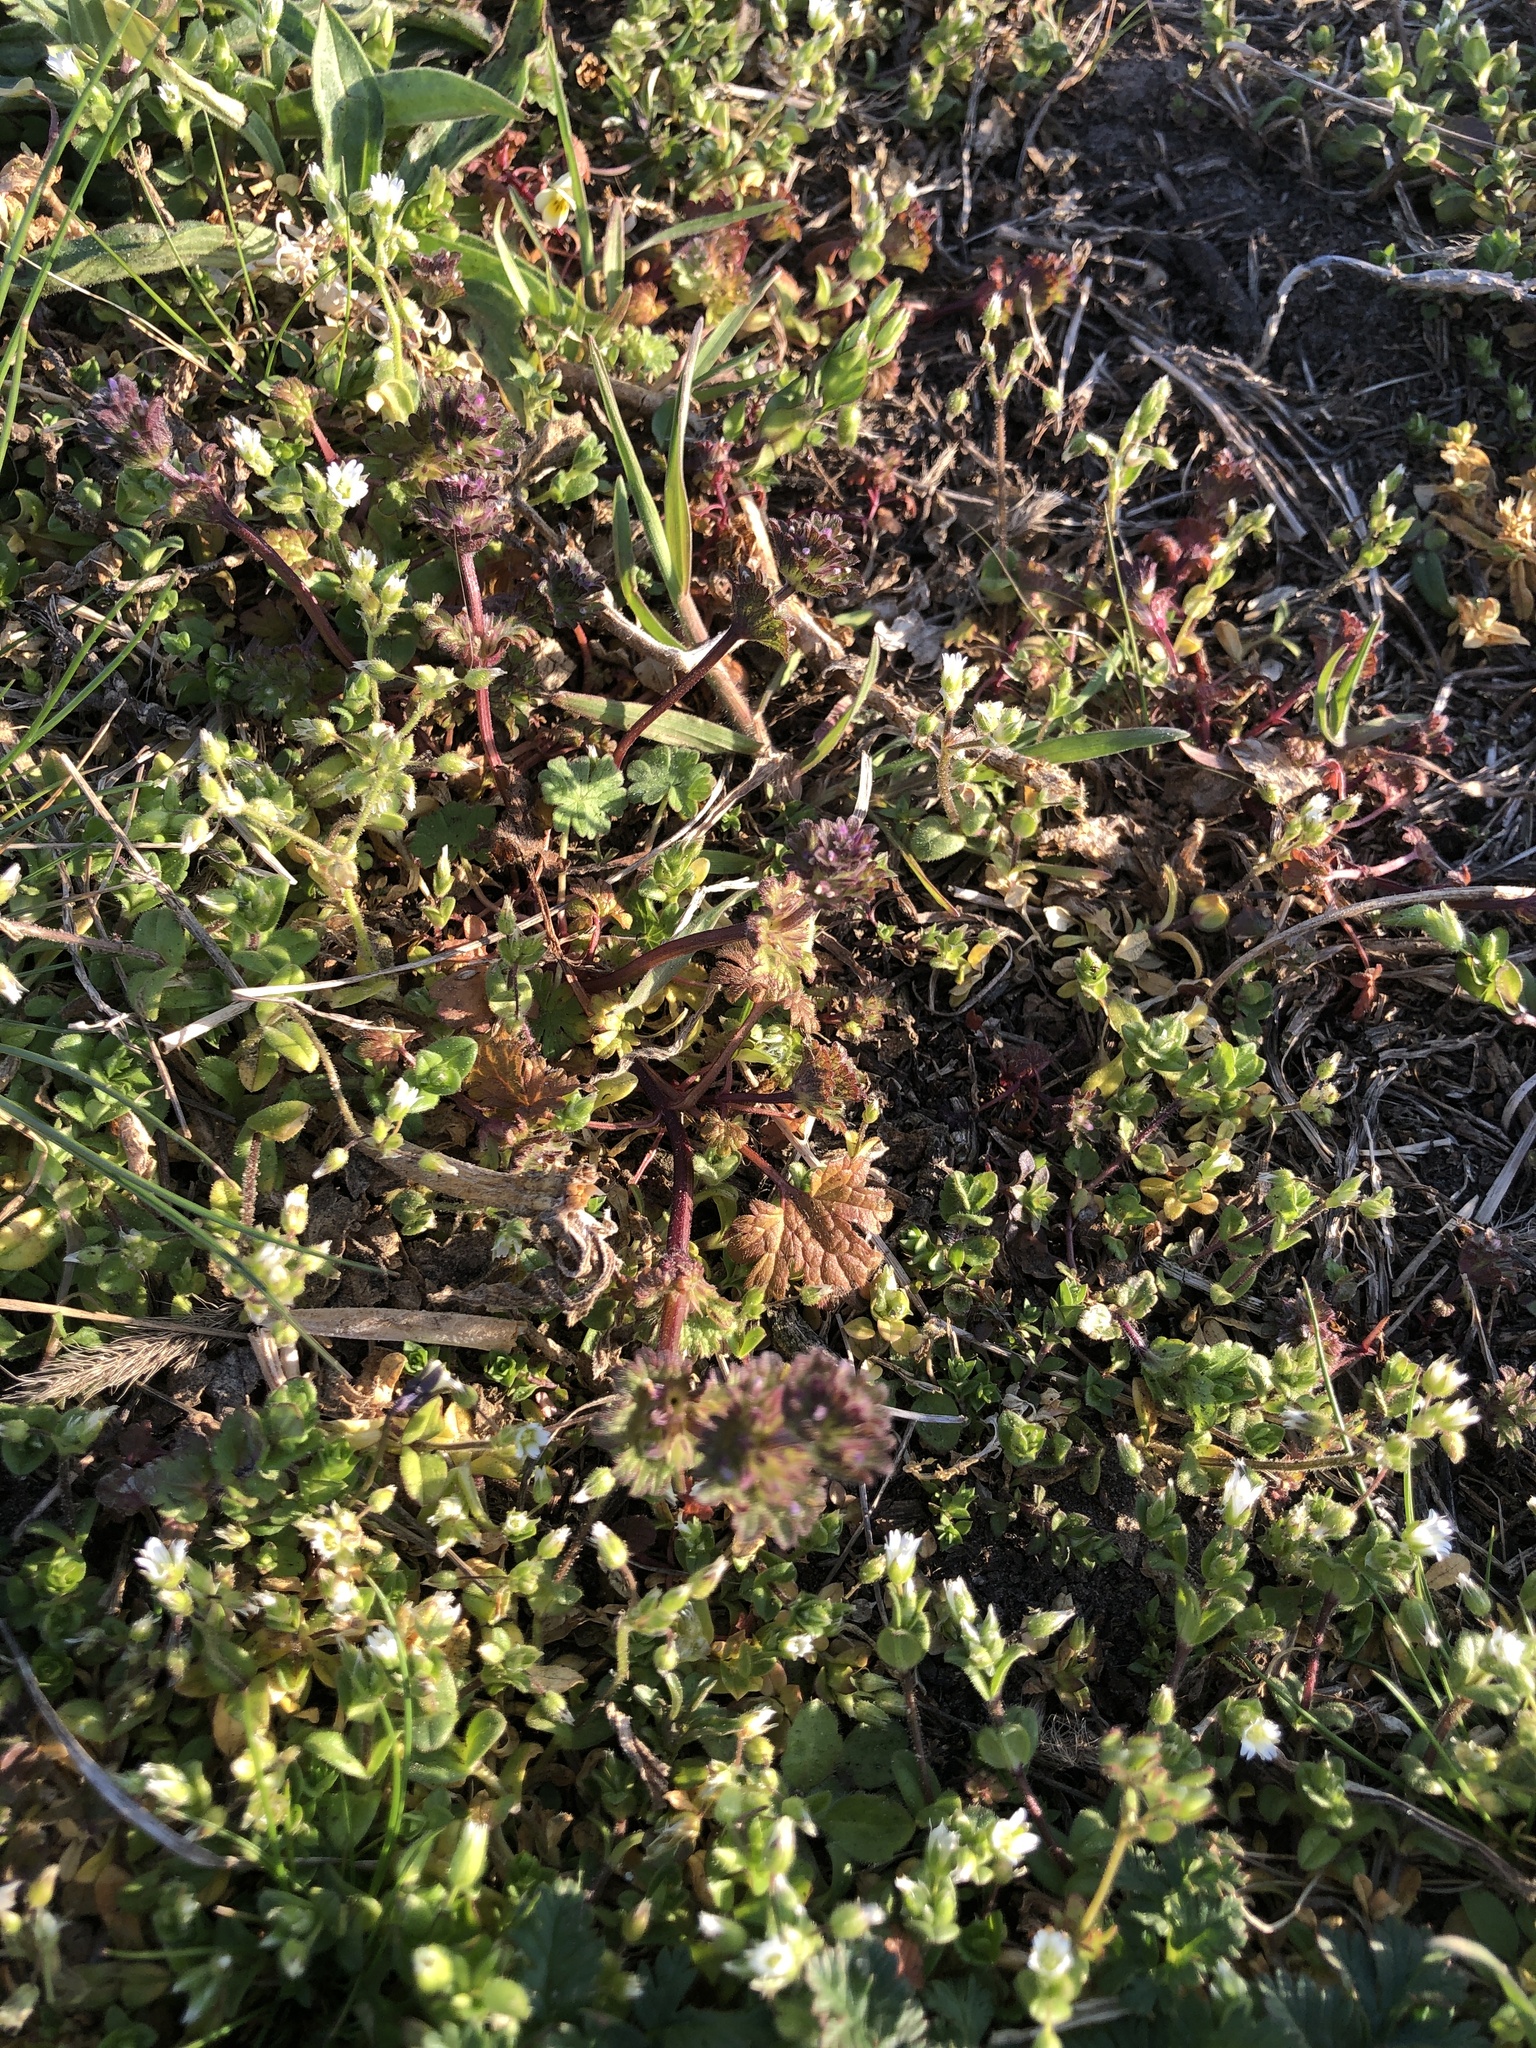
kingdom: Plantae
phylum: Tracheophyta
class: Magnoliopsida
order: Lamiales
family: Lamiaceae
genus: Lamium
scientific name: Lamium amplexicaule
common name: Henbit dead-nettle
